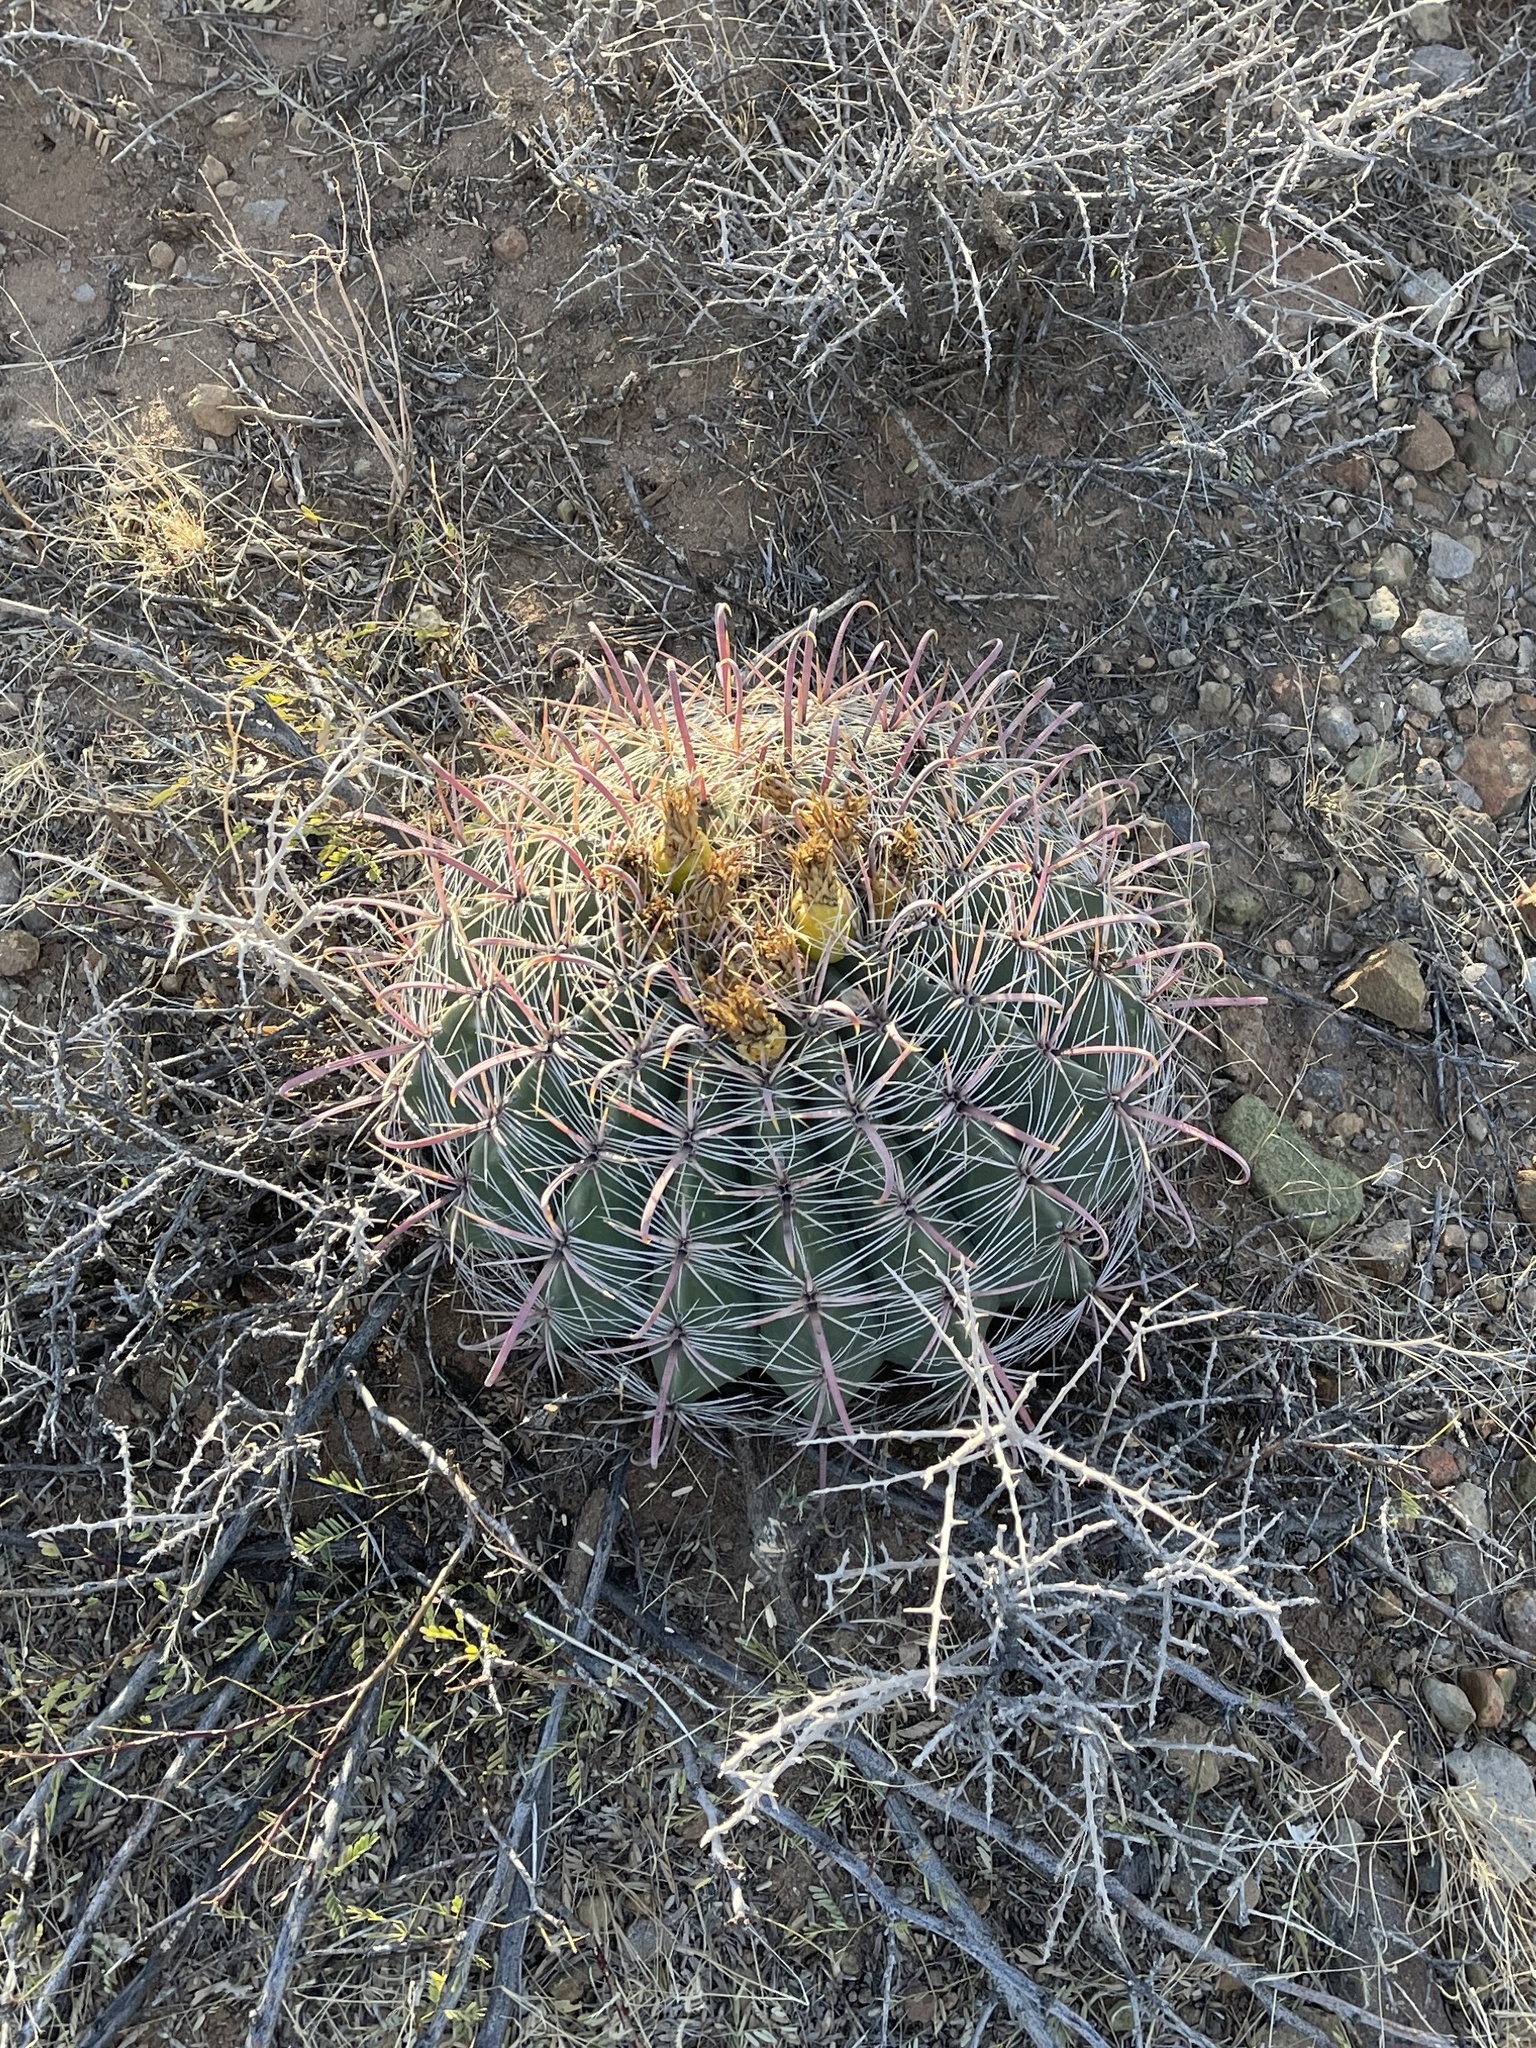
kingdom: Plantae
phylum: Tracheophyta
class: Magnoliopsida
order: Caryophyllales
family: Cactaceae
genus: Ferocactus
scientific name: Ferocactus wislizeni
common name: Candy barrel cactus
